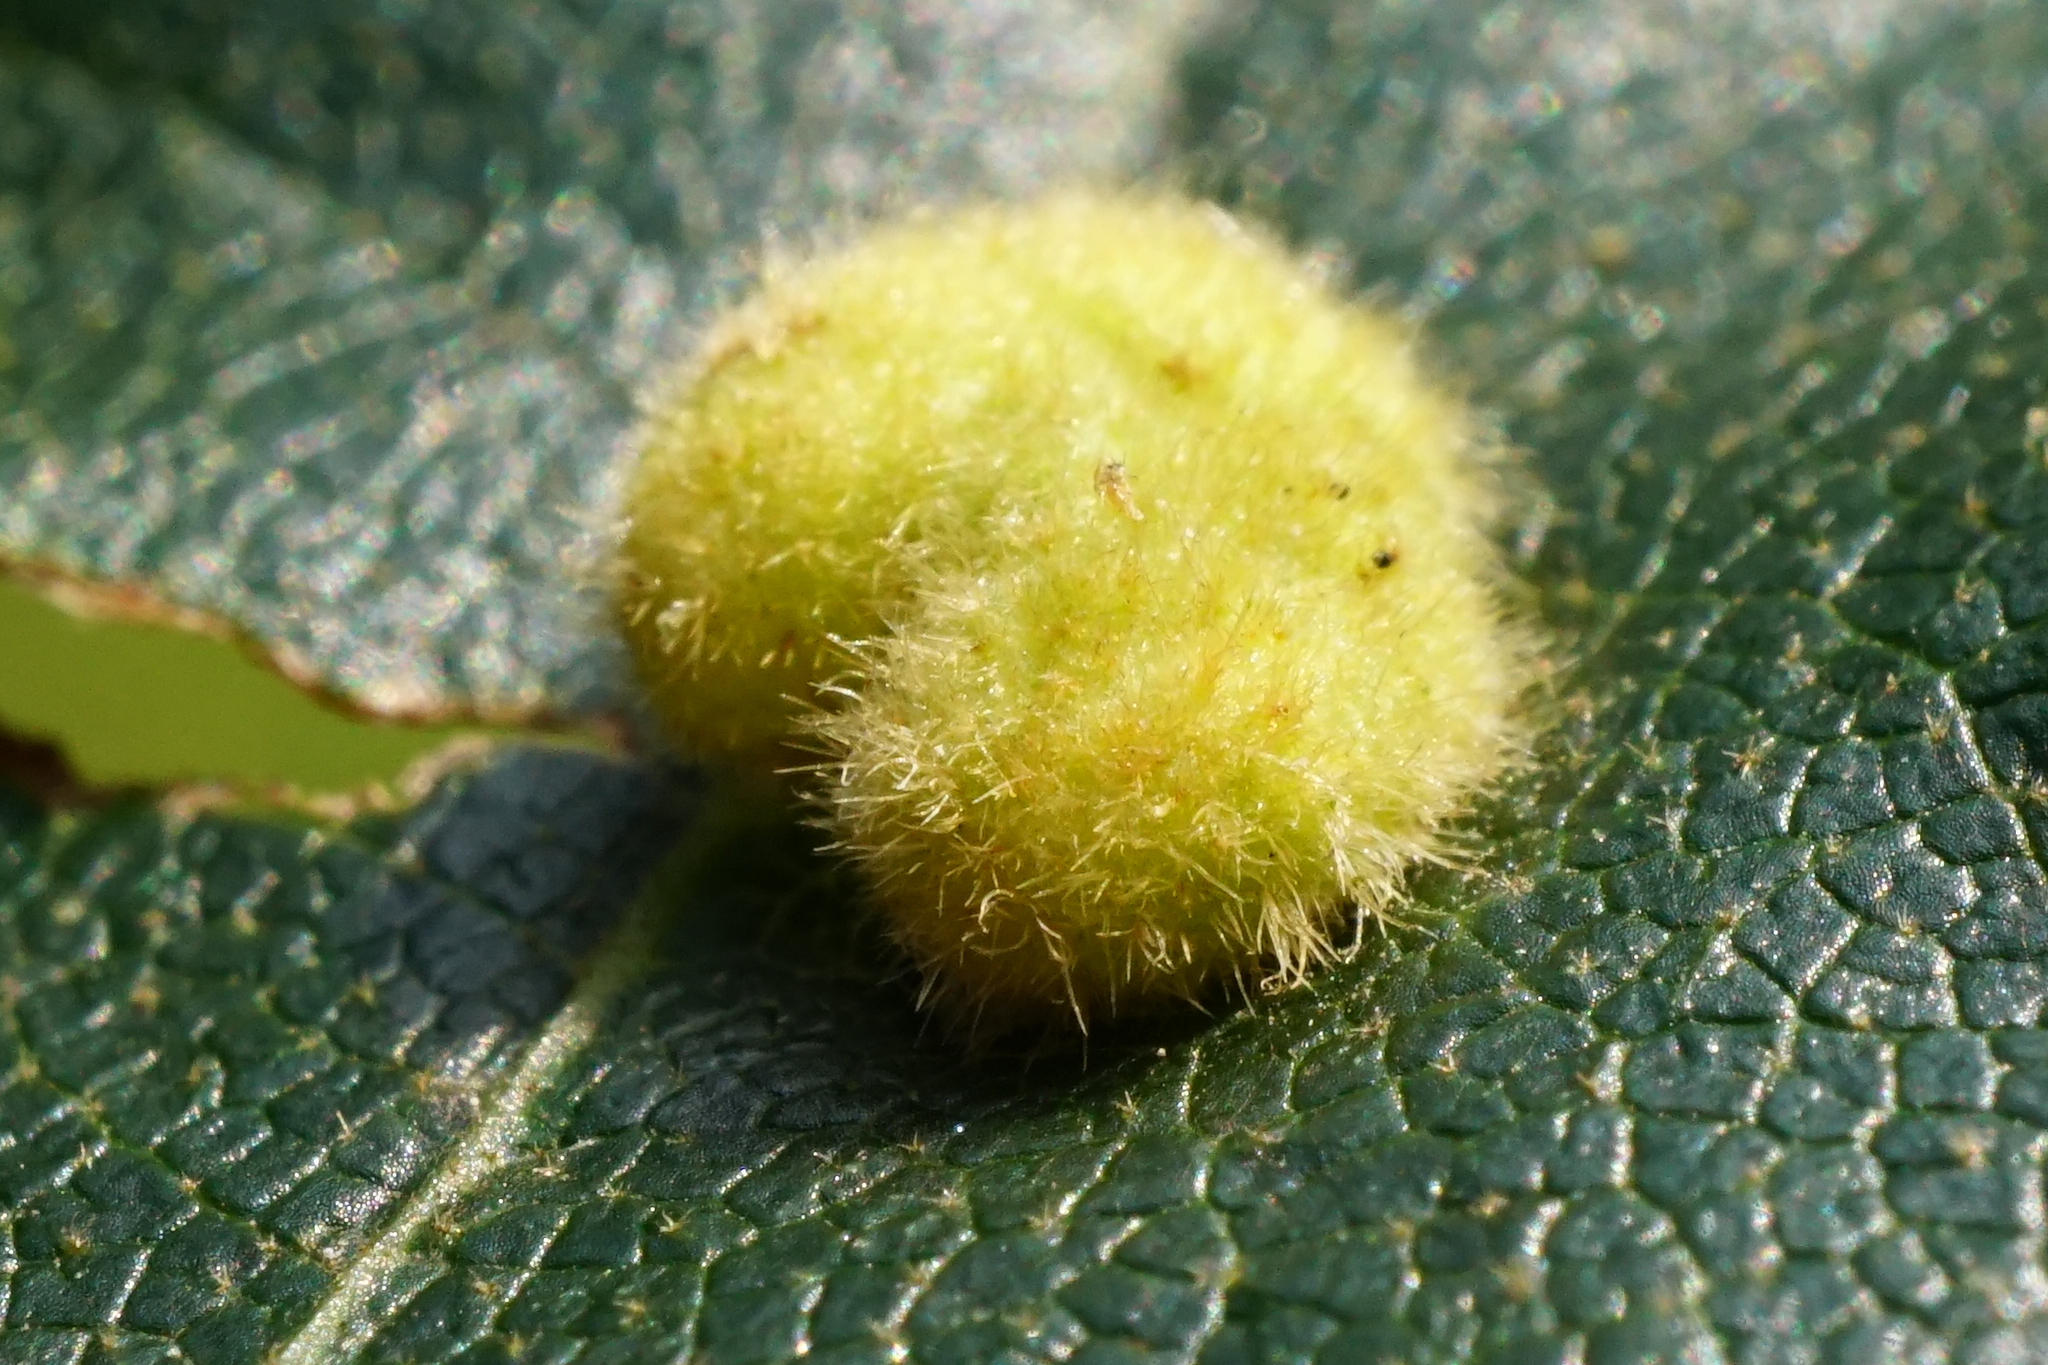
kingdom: Animalia
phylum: Arthropoda
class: Insecta
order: Diptera
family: Cecidomyiidae
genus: Dryomyia
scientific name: Dryomyia circinans
